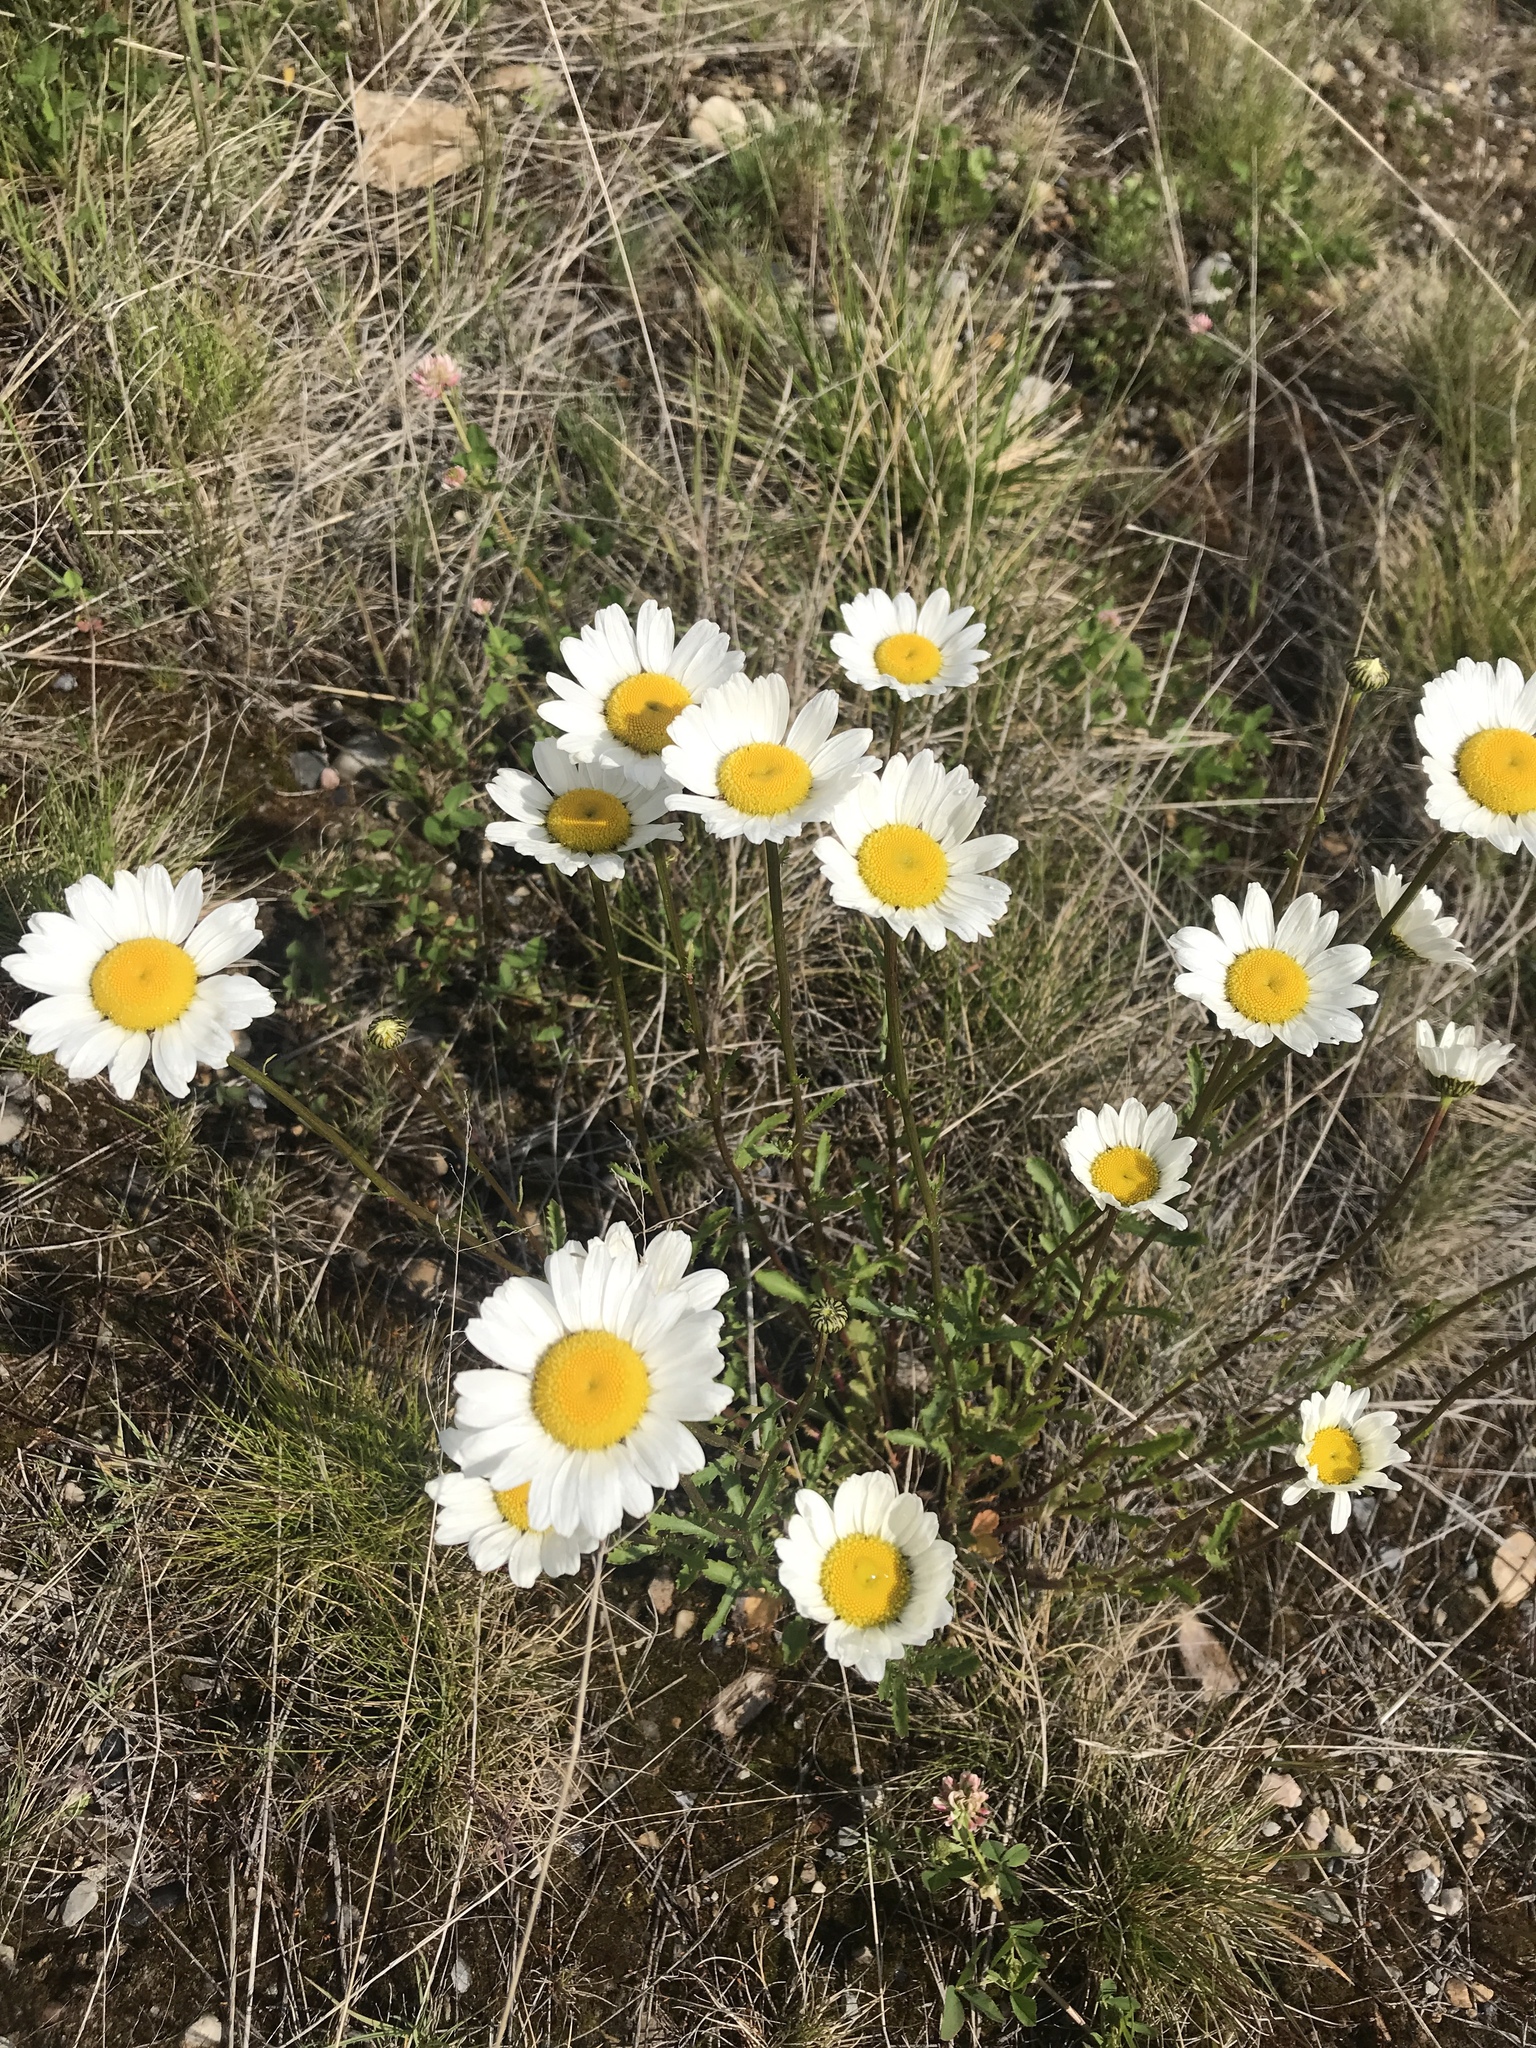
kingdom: Plantae
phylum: Tracheophyta
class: Magnoliopsida
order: Asterales
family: Asteraceae
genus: Leucanthemum
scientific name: Leucanthemum vulgare
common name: Oxeye daisy
